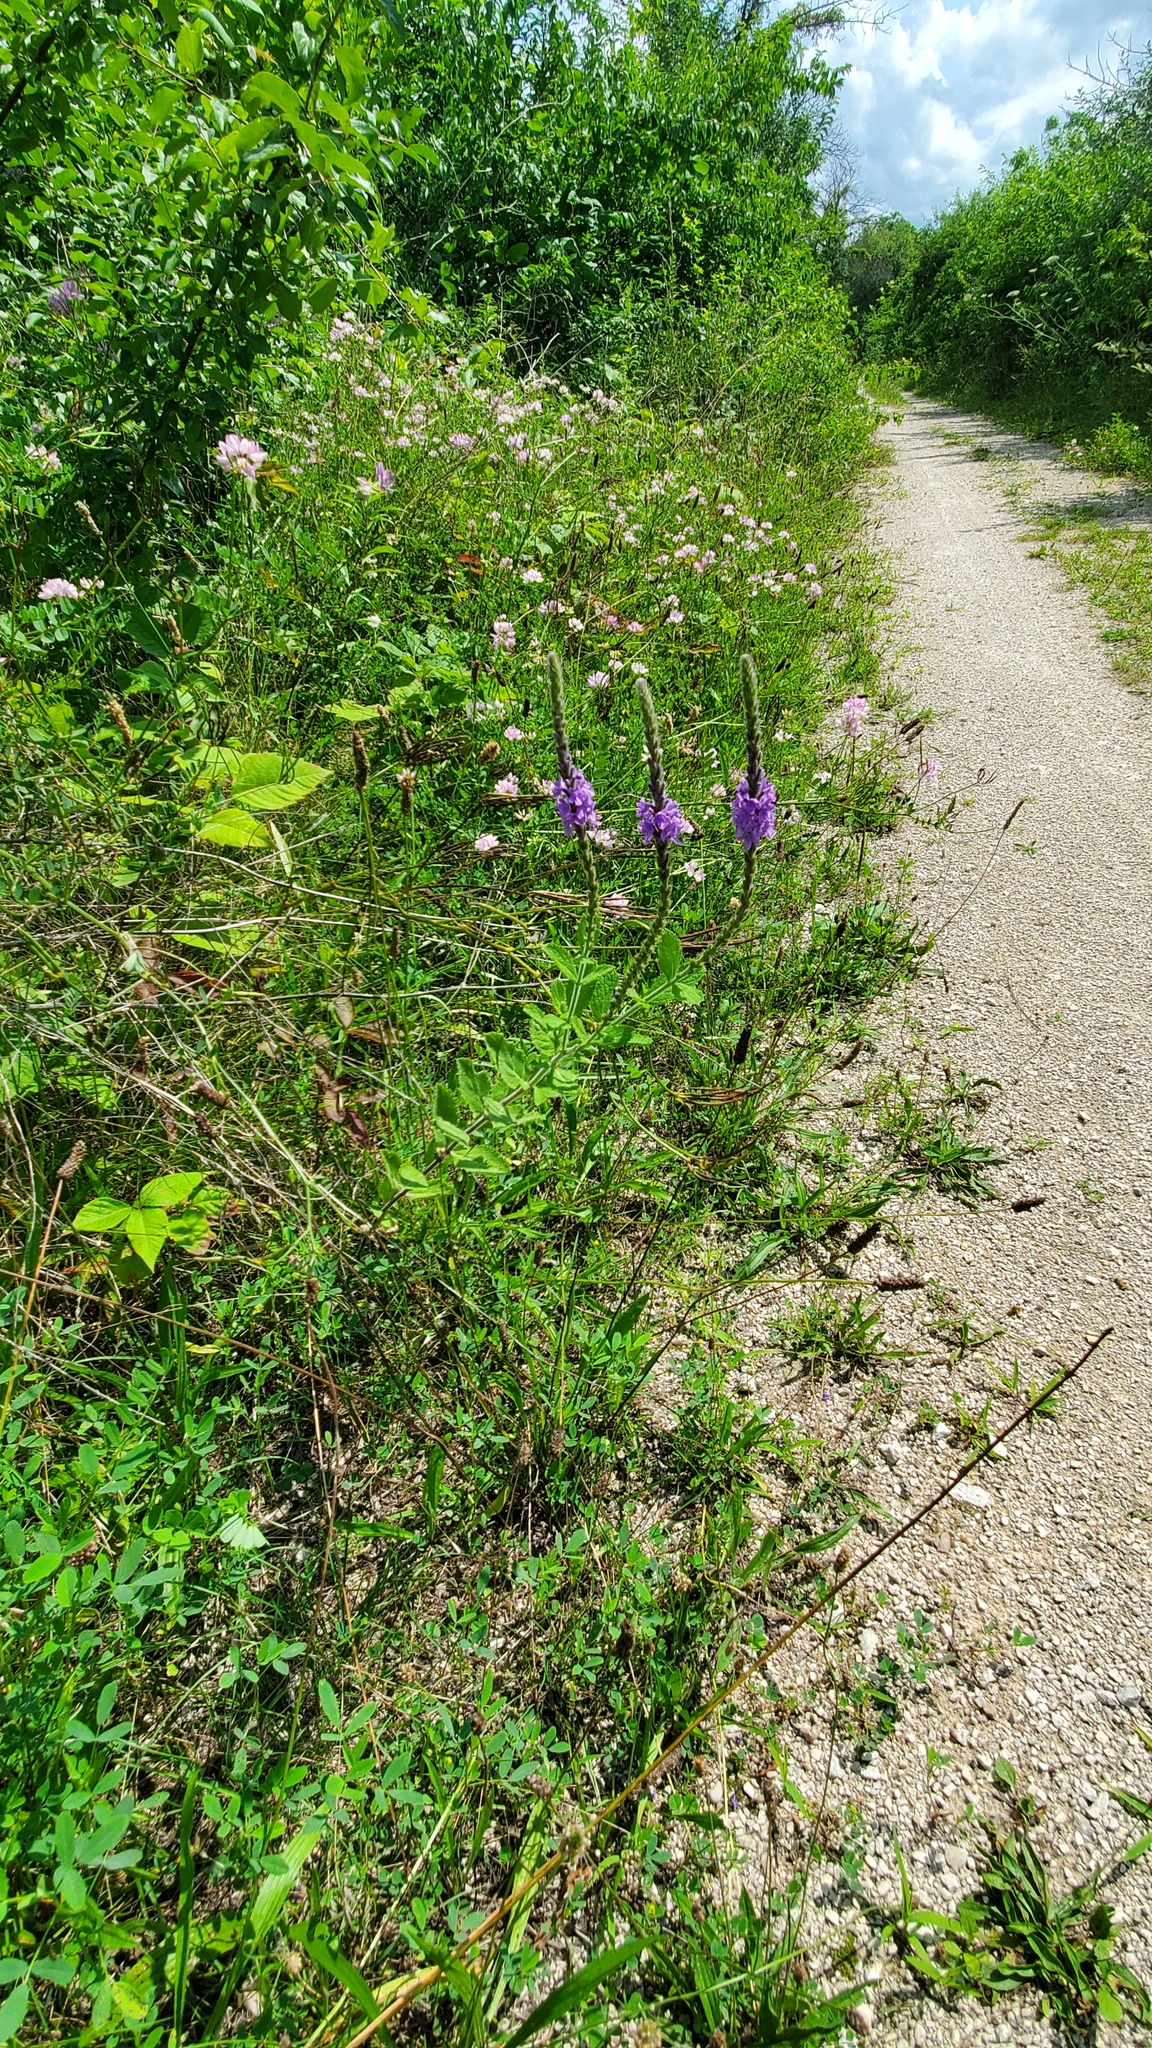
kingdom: Plantae
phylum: Tracheophyta
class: Magnoliopsida
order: Lamiales
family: Verbenaceae
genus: Verbena
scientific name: Verbena stricta
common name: Hoary vervain
